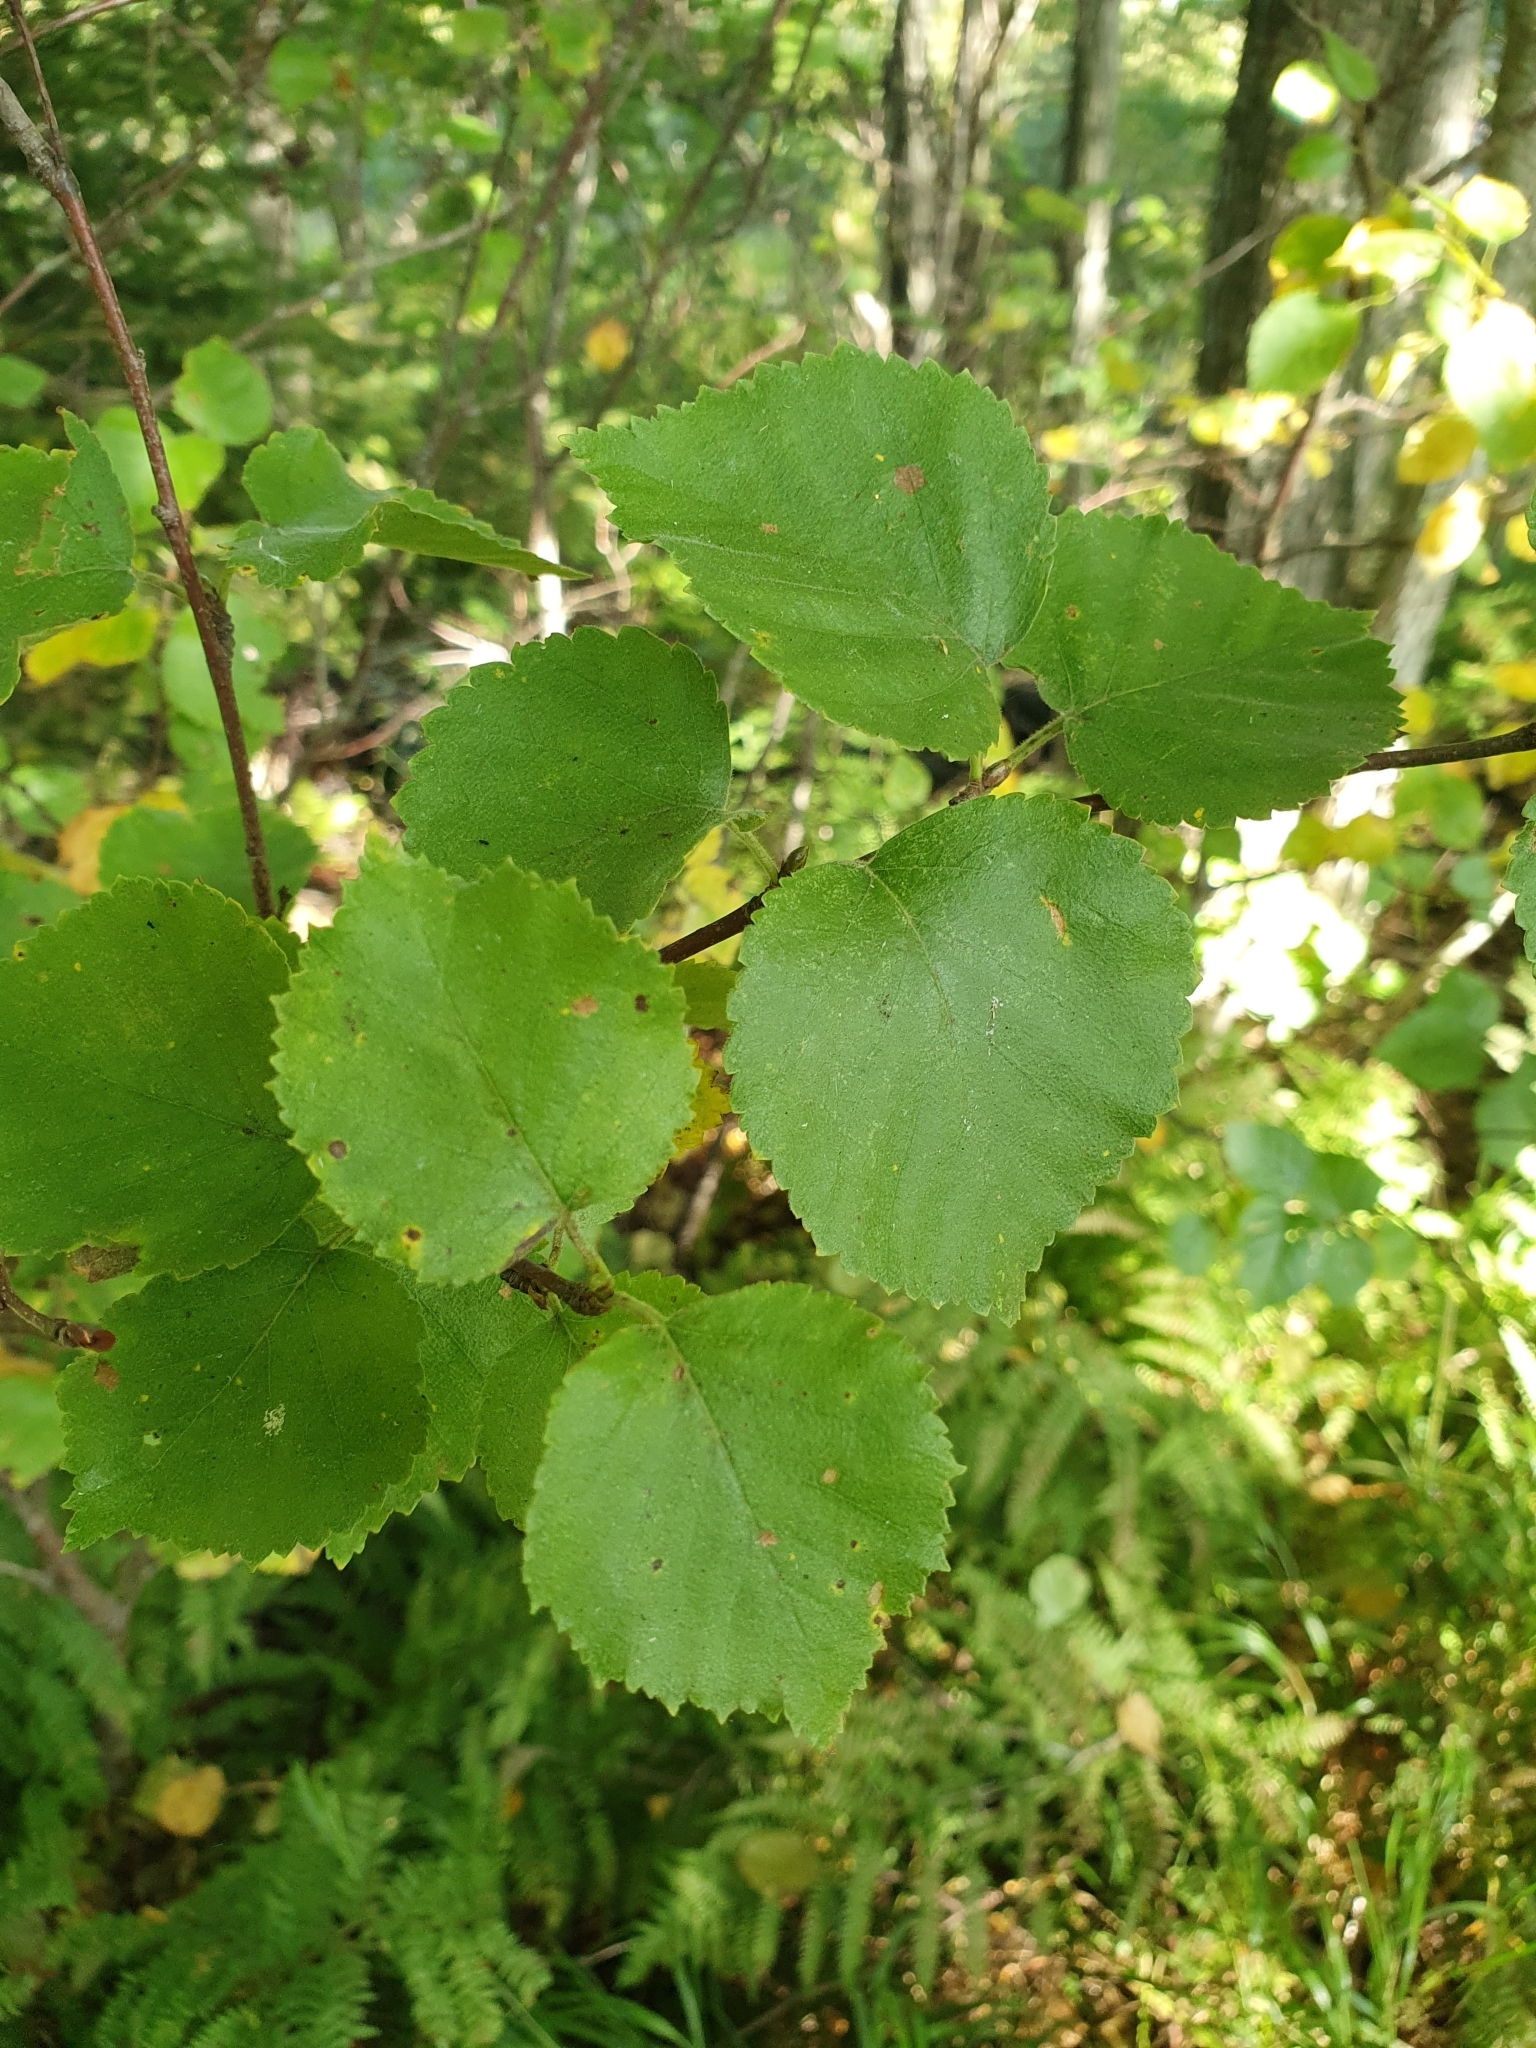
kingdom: Plantae
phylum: Tracheophyta
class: Magnoliopsida
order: Fagales
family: Betulaceae
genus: Betula
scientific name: Betula pubescens
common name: Downy birch
